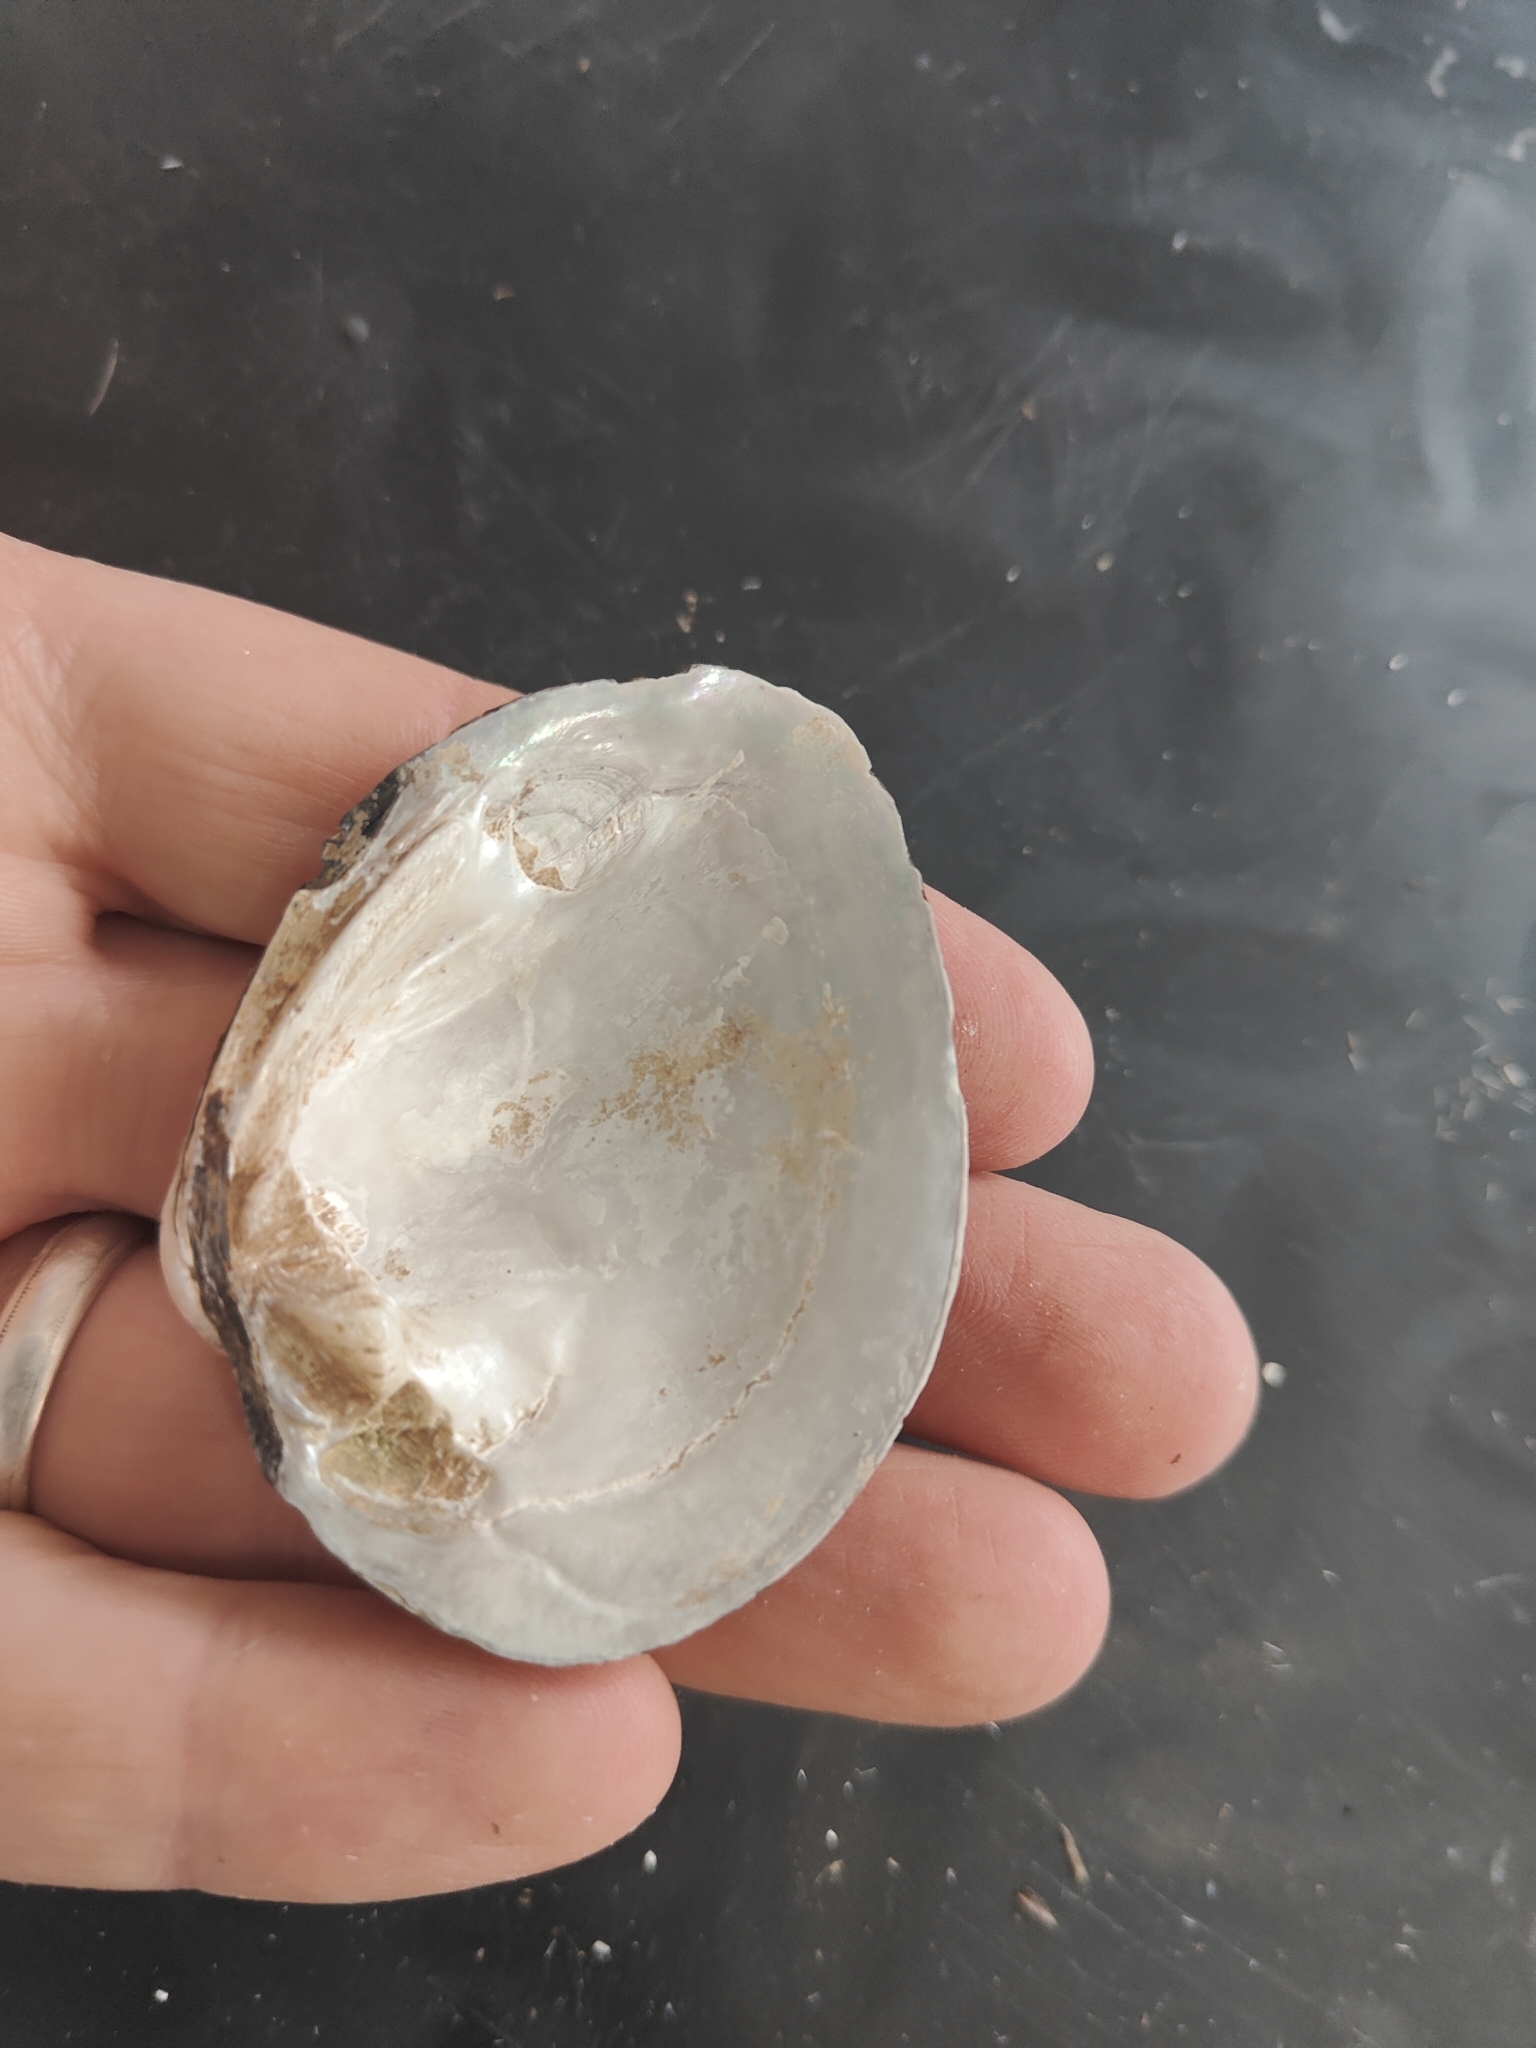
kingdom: Animalia
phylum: Mollusca
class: Bivalvia
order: Unionida
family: Unionidae
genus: Fusconaia
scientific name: Fusconaia flava
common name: Wabash pigtoe
